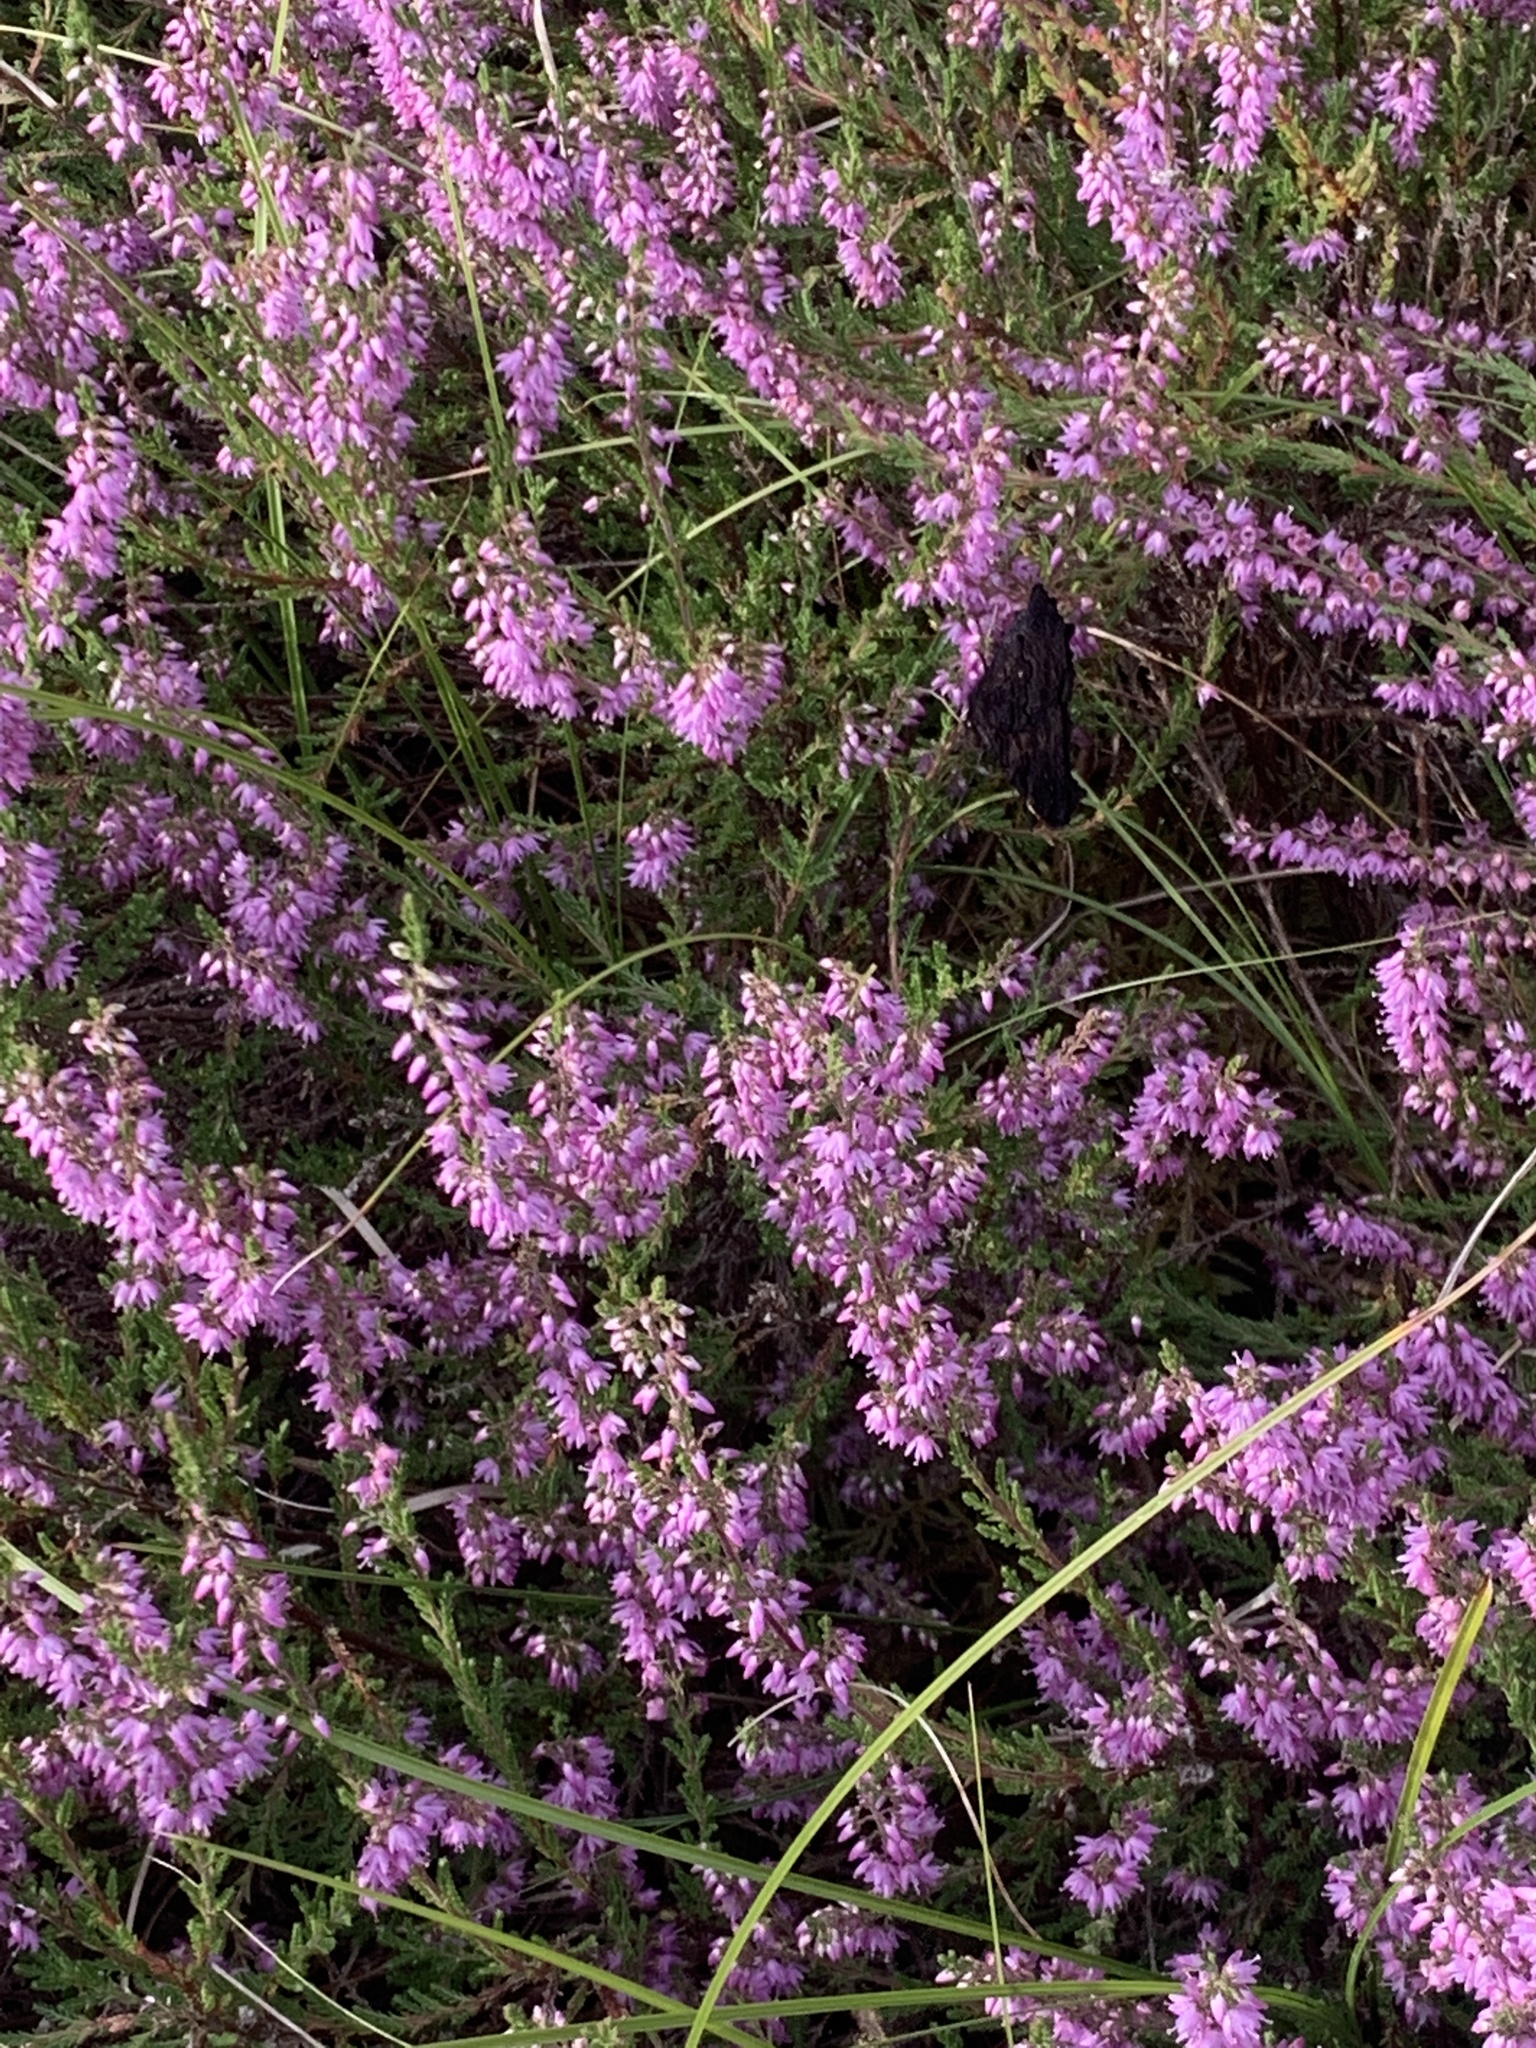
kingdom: Animalia
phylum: Arthropoda
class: Insecta
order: Lepidoptera
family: Nymphalidae
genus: Aglais
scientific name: Aglais io
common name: Peacock
